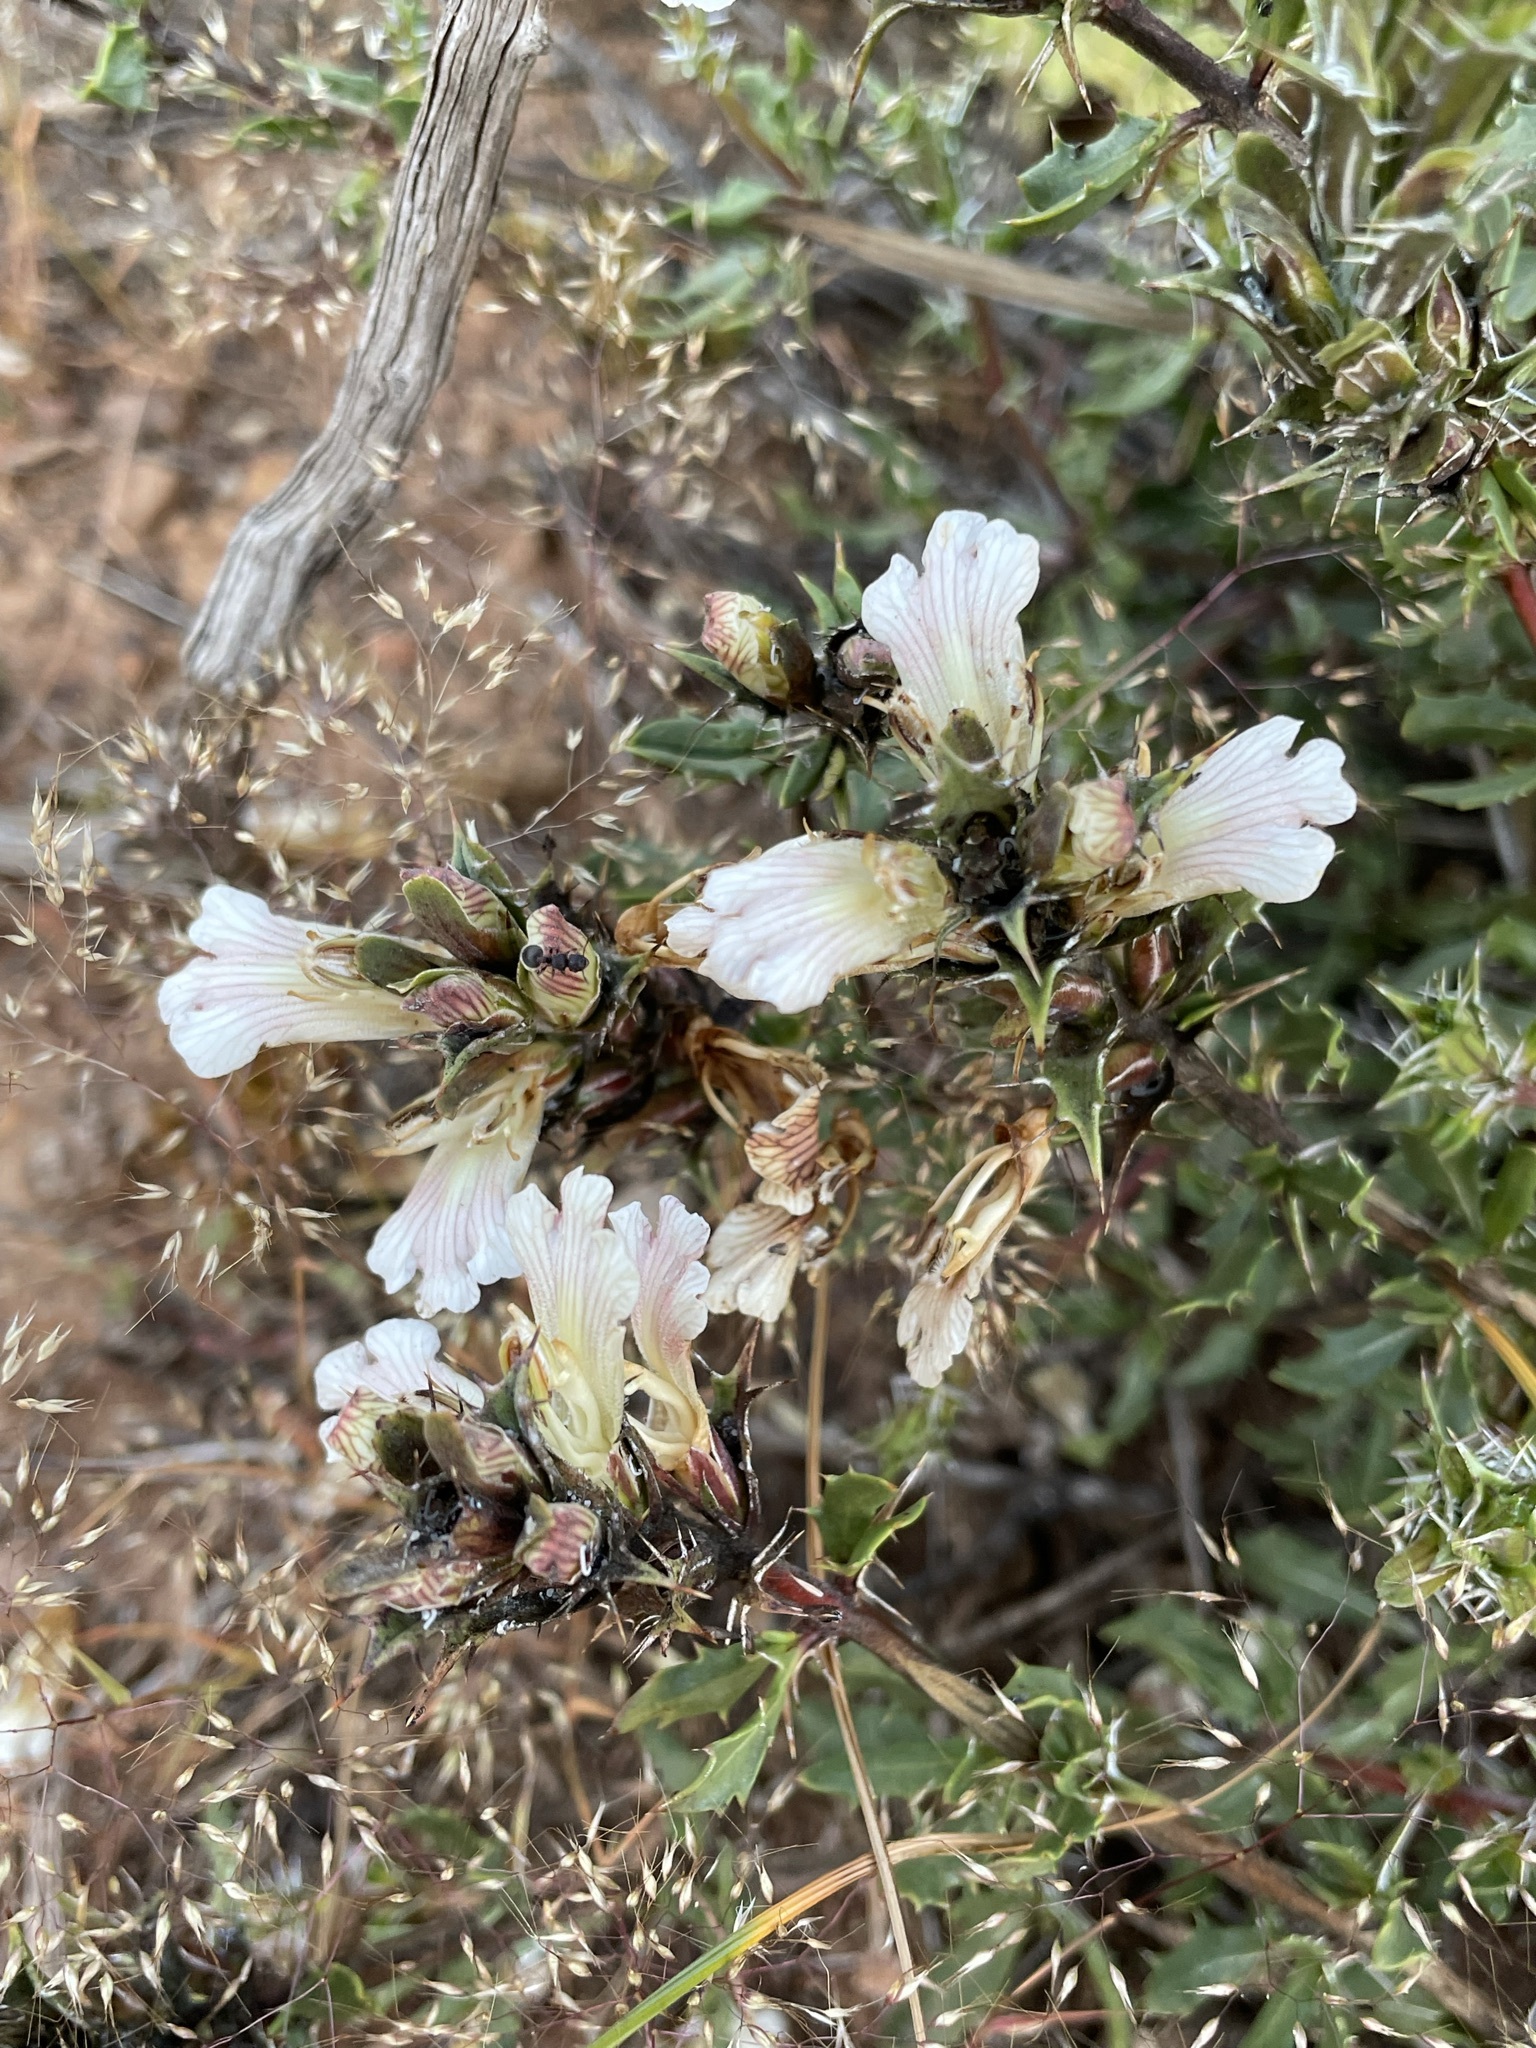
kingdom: Plantae
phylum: Tracheophyta
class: Magnoliopsida
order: Lamiales
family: Acanthaceae
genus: Blepharis
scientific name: Blepharis capensis
